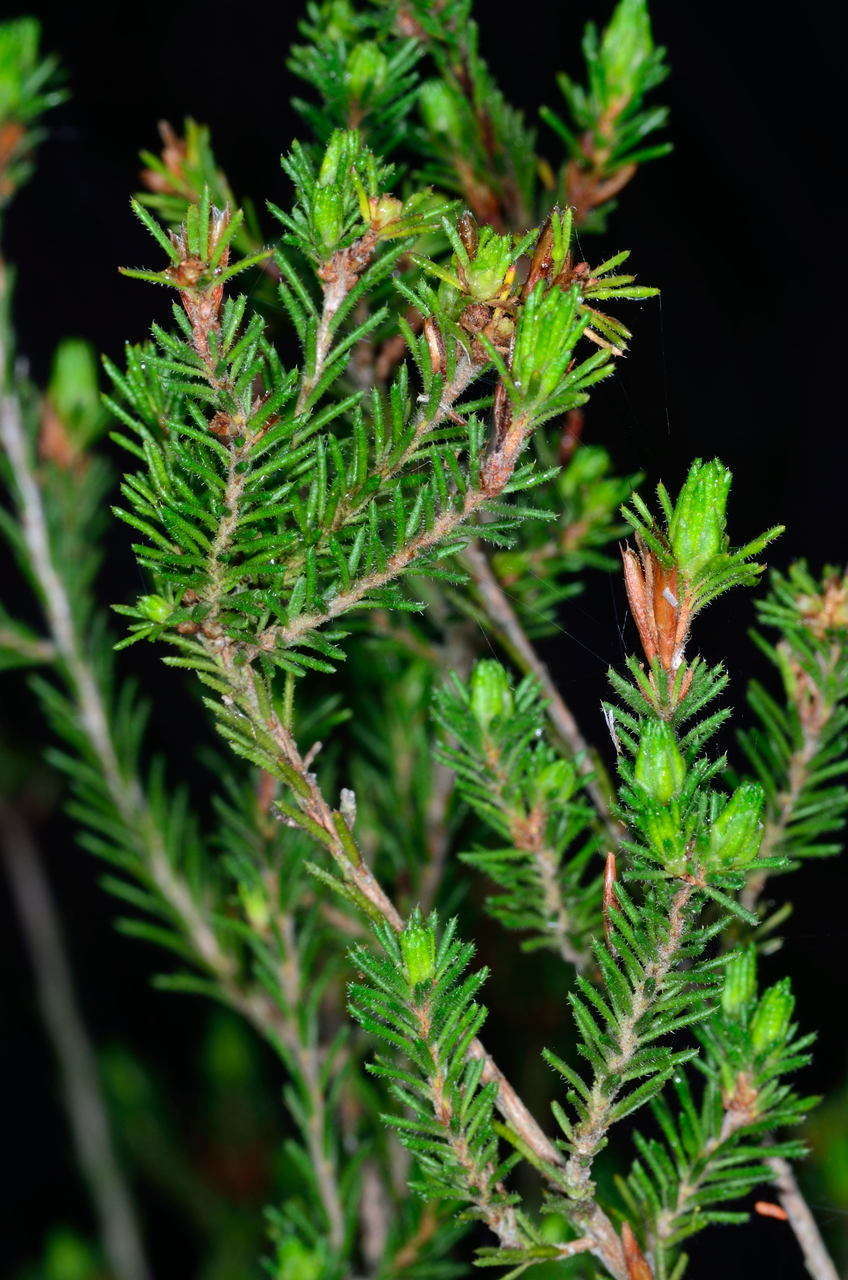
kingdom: Plantae
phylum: Tracheophyta
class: Magnoliopsida
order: Fabales
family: Fabaceae
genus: Pultenaea
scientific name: Pultenaea graveolens
